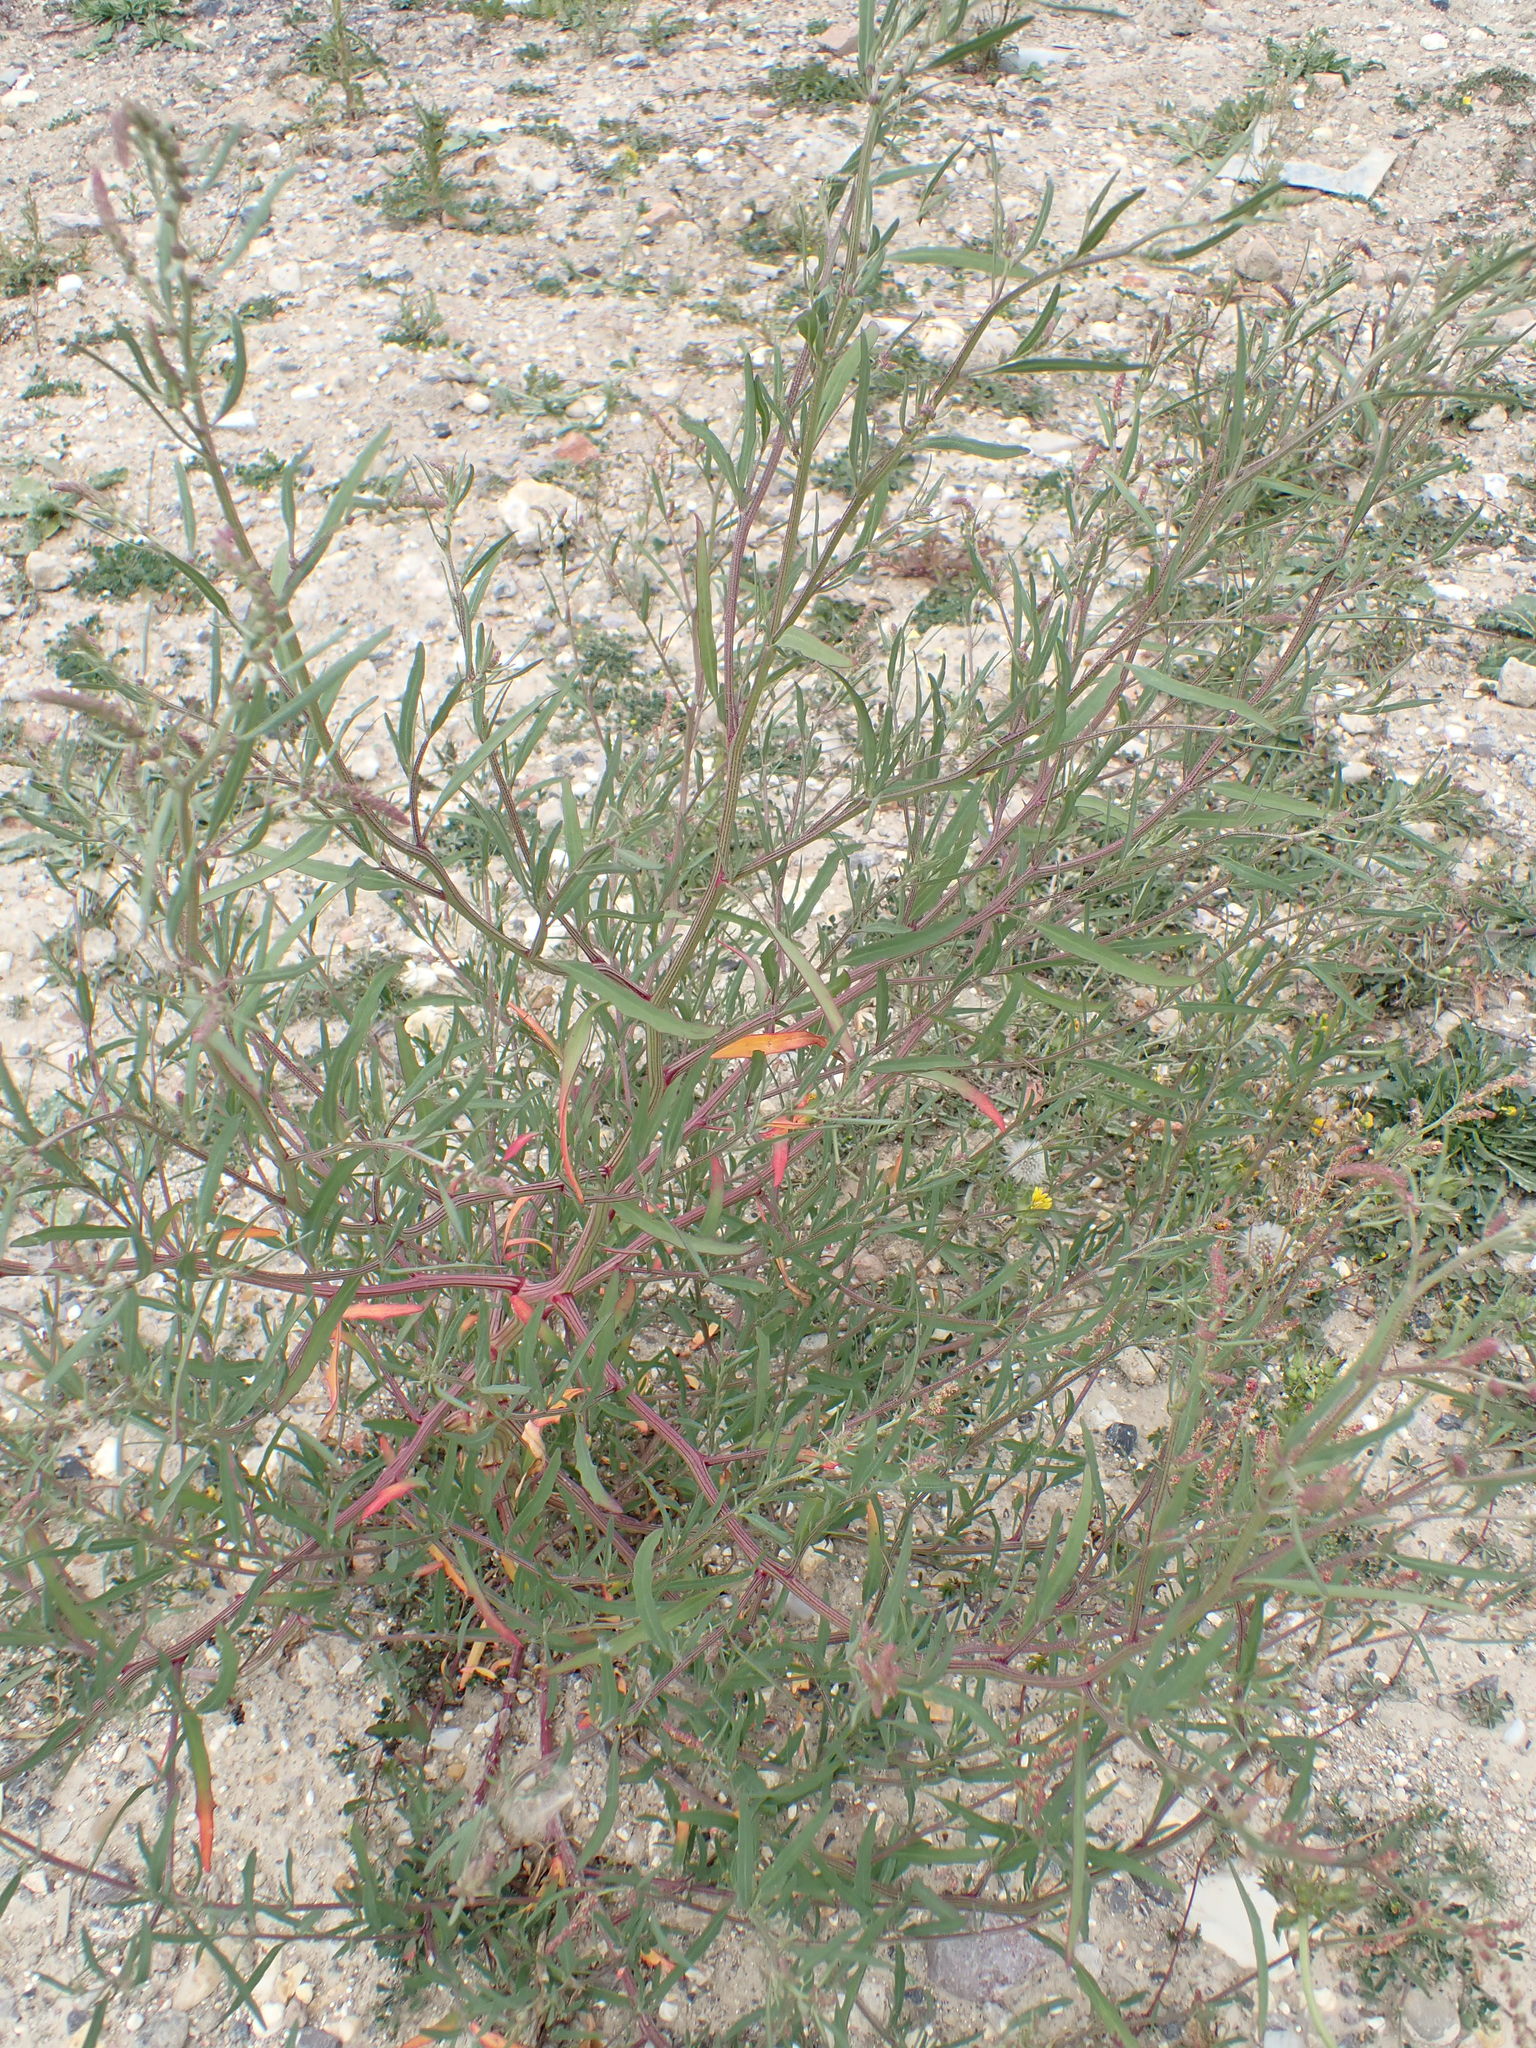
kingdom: Plantae
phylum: Tracheophyta
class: Magnoliopsida
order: Caryophyllales
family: Amaranthaceae
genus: Atriplex
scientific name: Atriplex littoralis
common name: Grass-leaved orache
